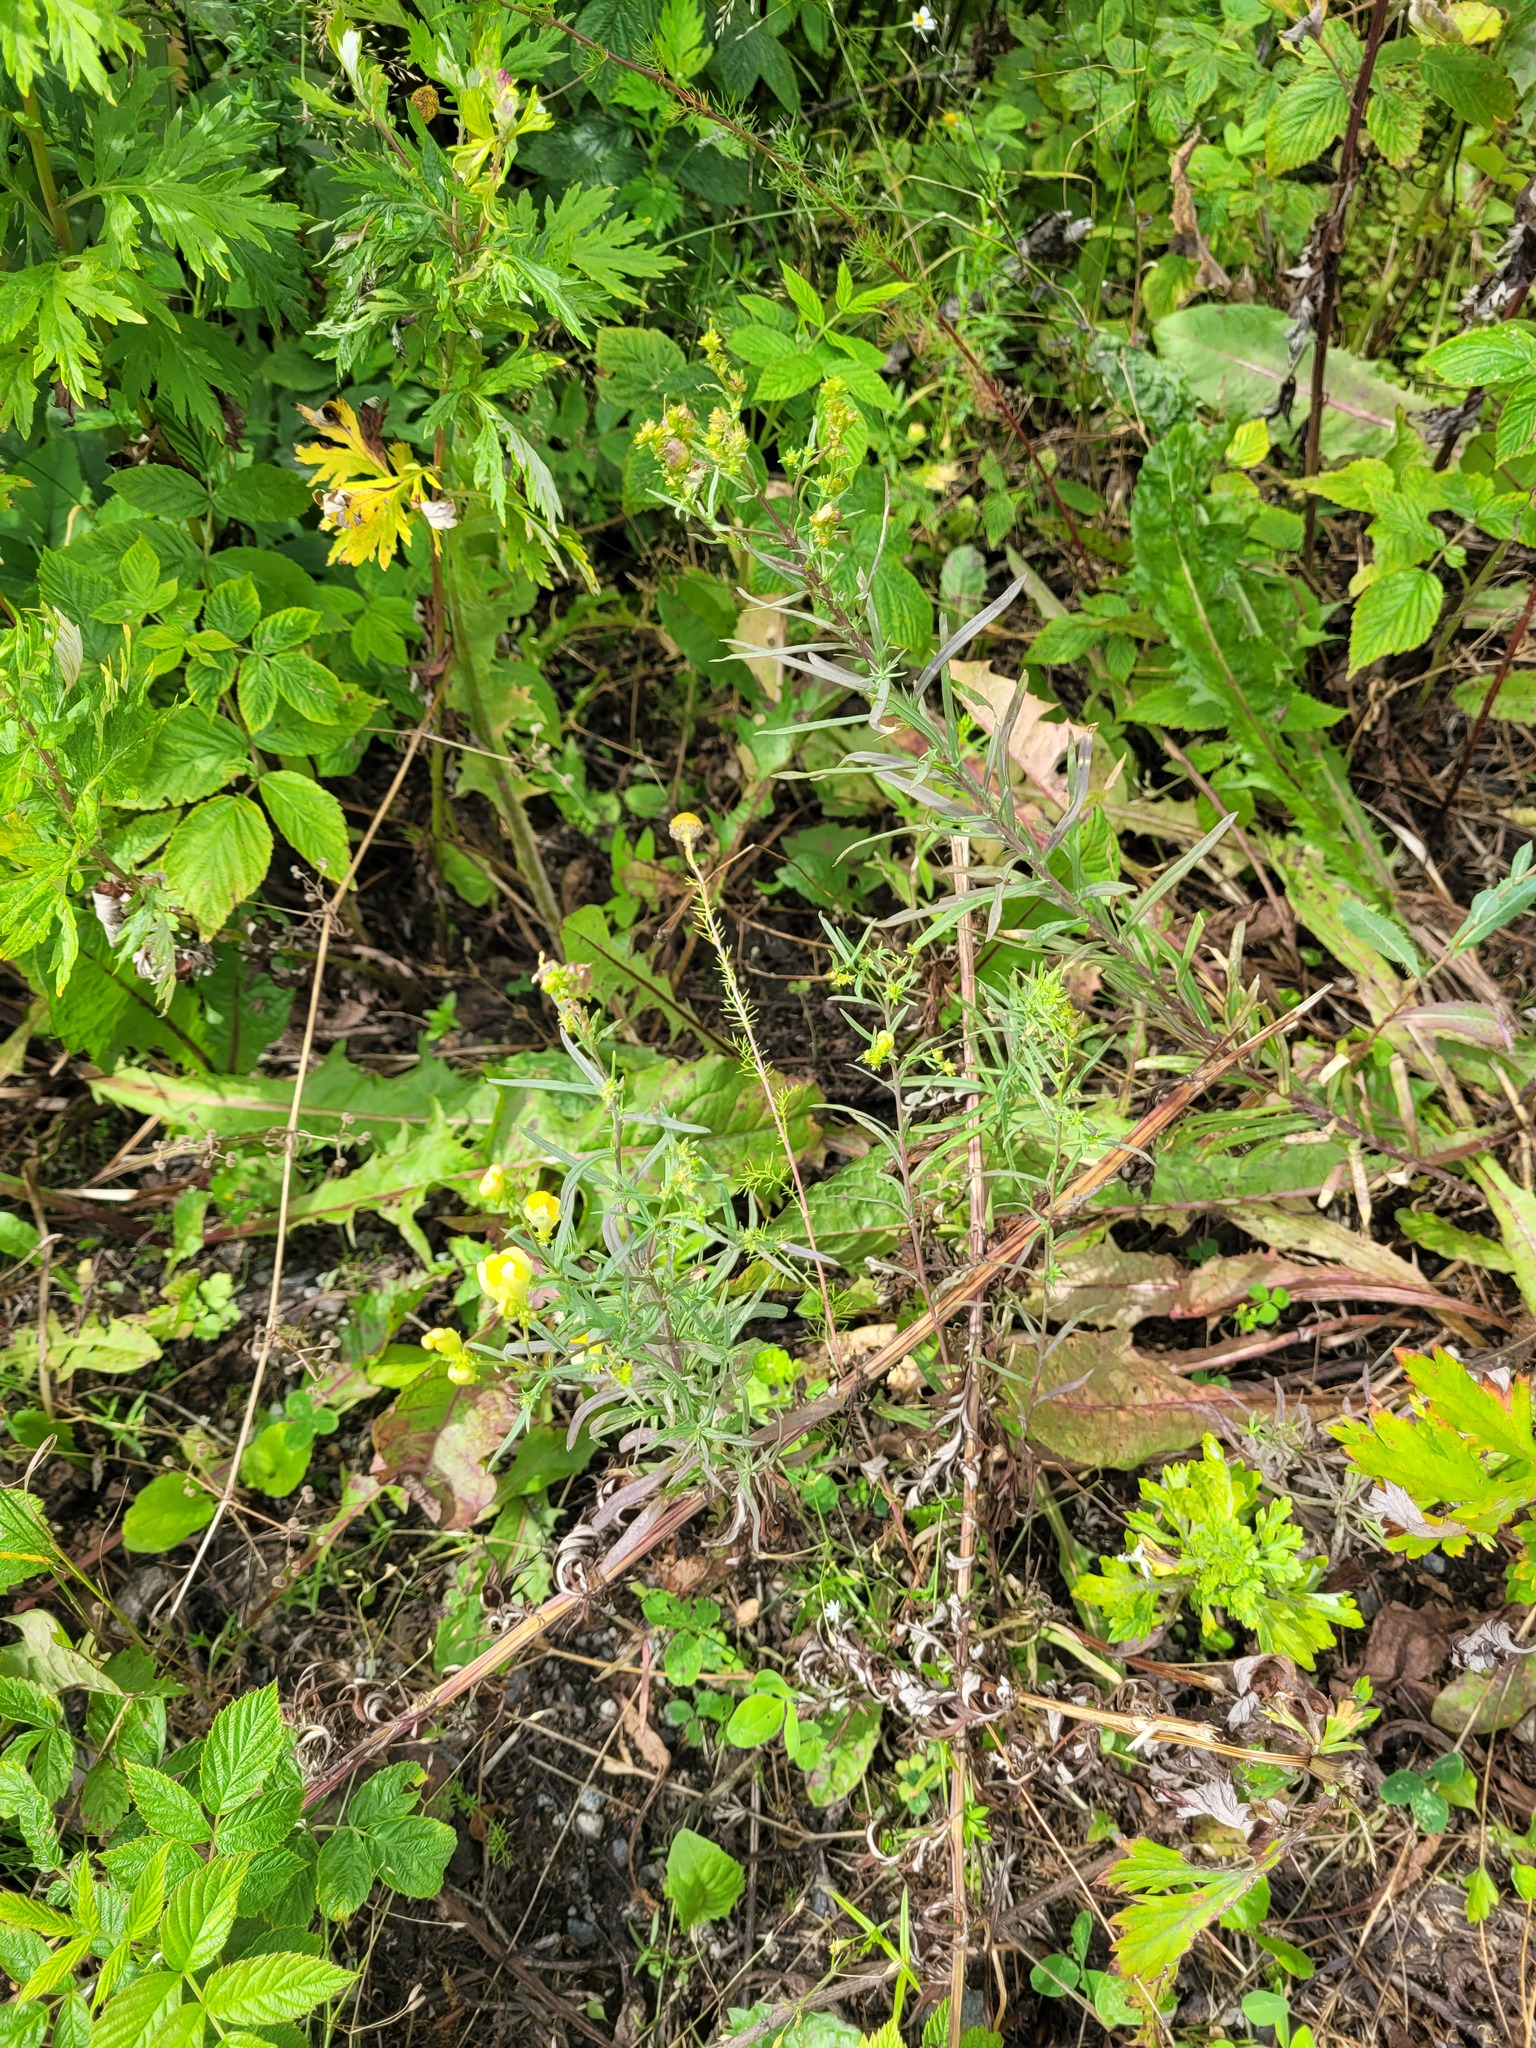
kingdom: Plantae
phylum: Tracheophyta
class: Magnoliopsida
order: Lamiales
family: Plantaginaceae
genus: Linaria
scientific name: Linaria vulgaris
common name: Butter and eggs
